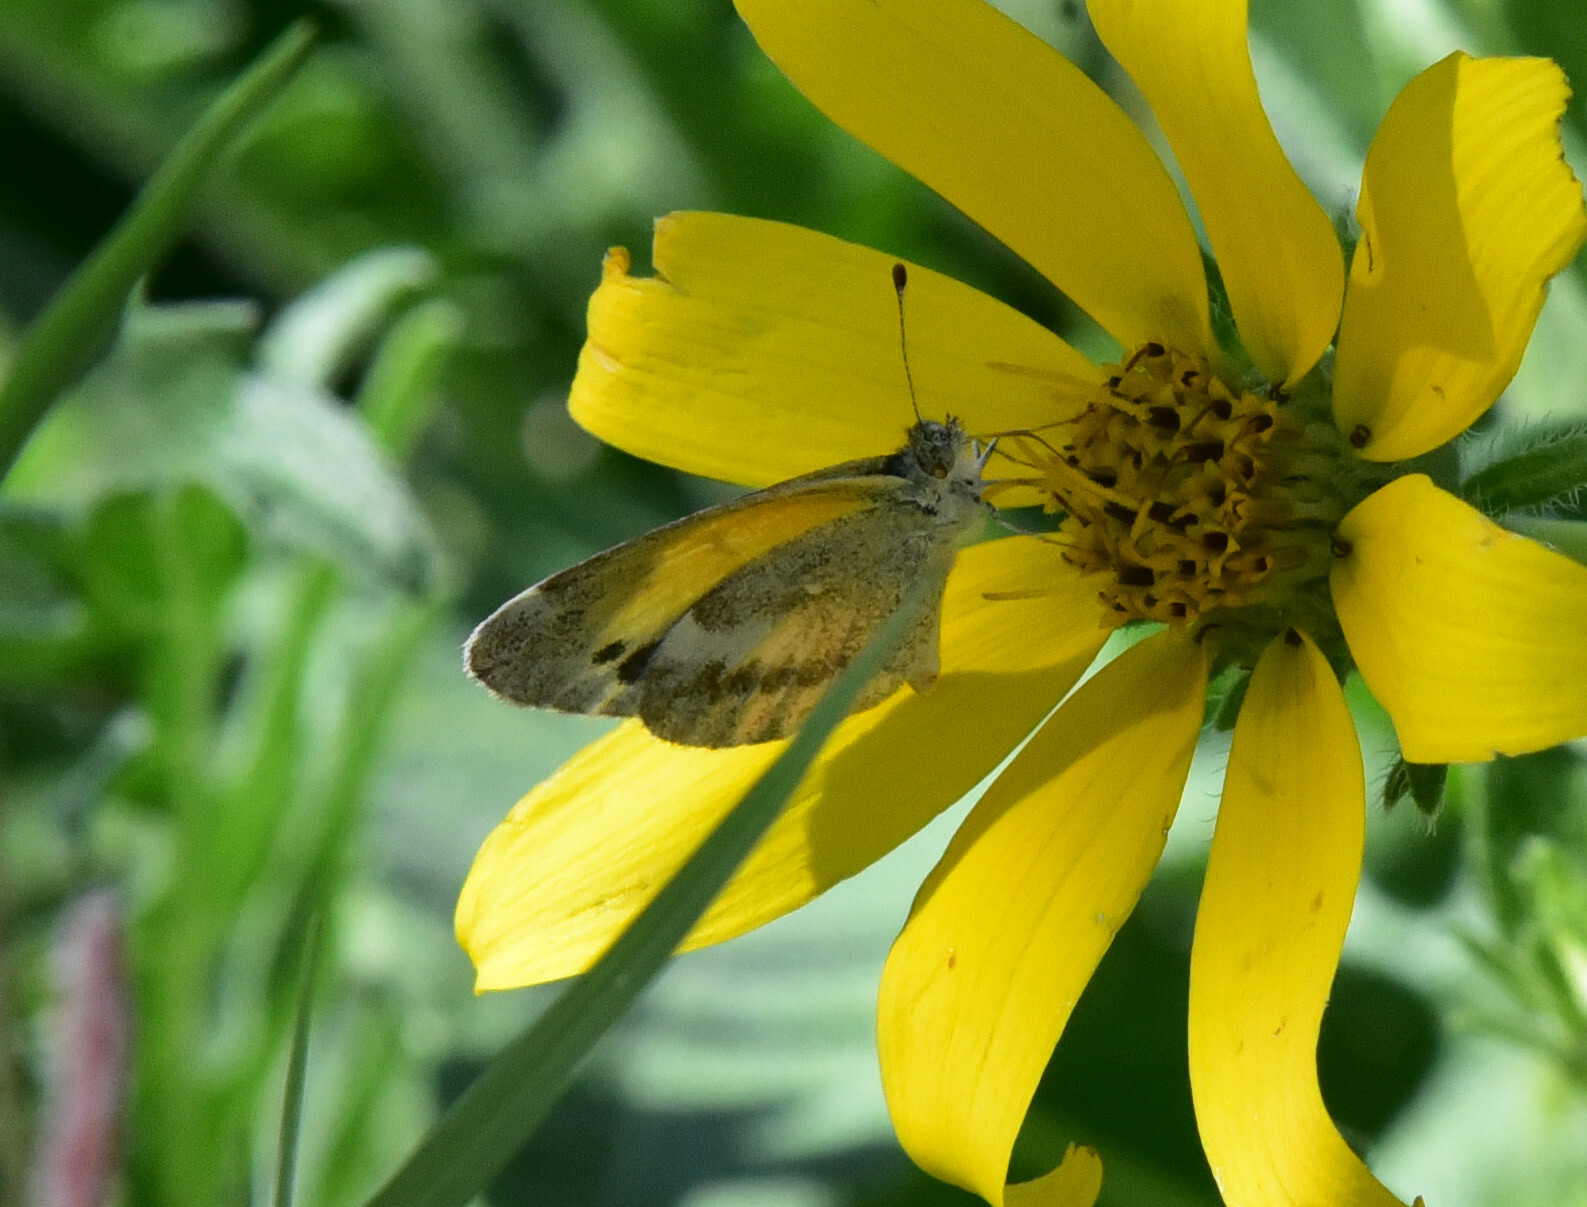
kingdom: Animalia
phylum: Arthropoda
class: Insecta
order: Lepidoptera
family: Pieridae
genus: Nathalis
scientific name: Nathalis iole
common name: Dainty sulphur
